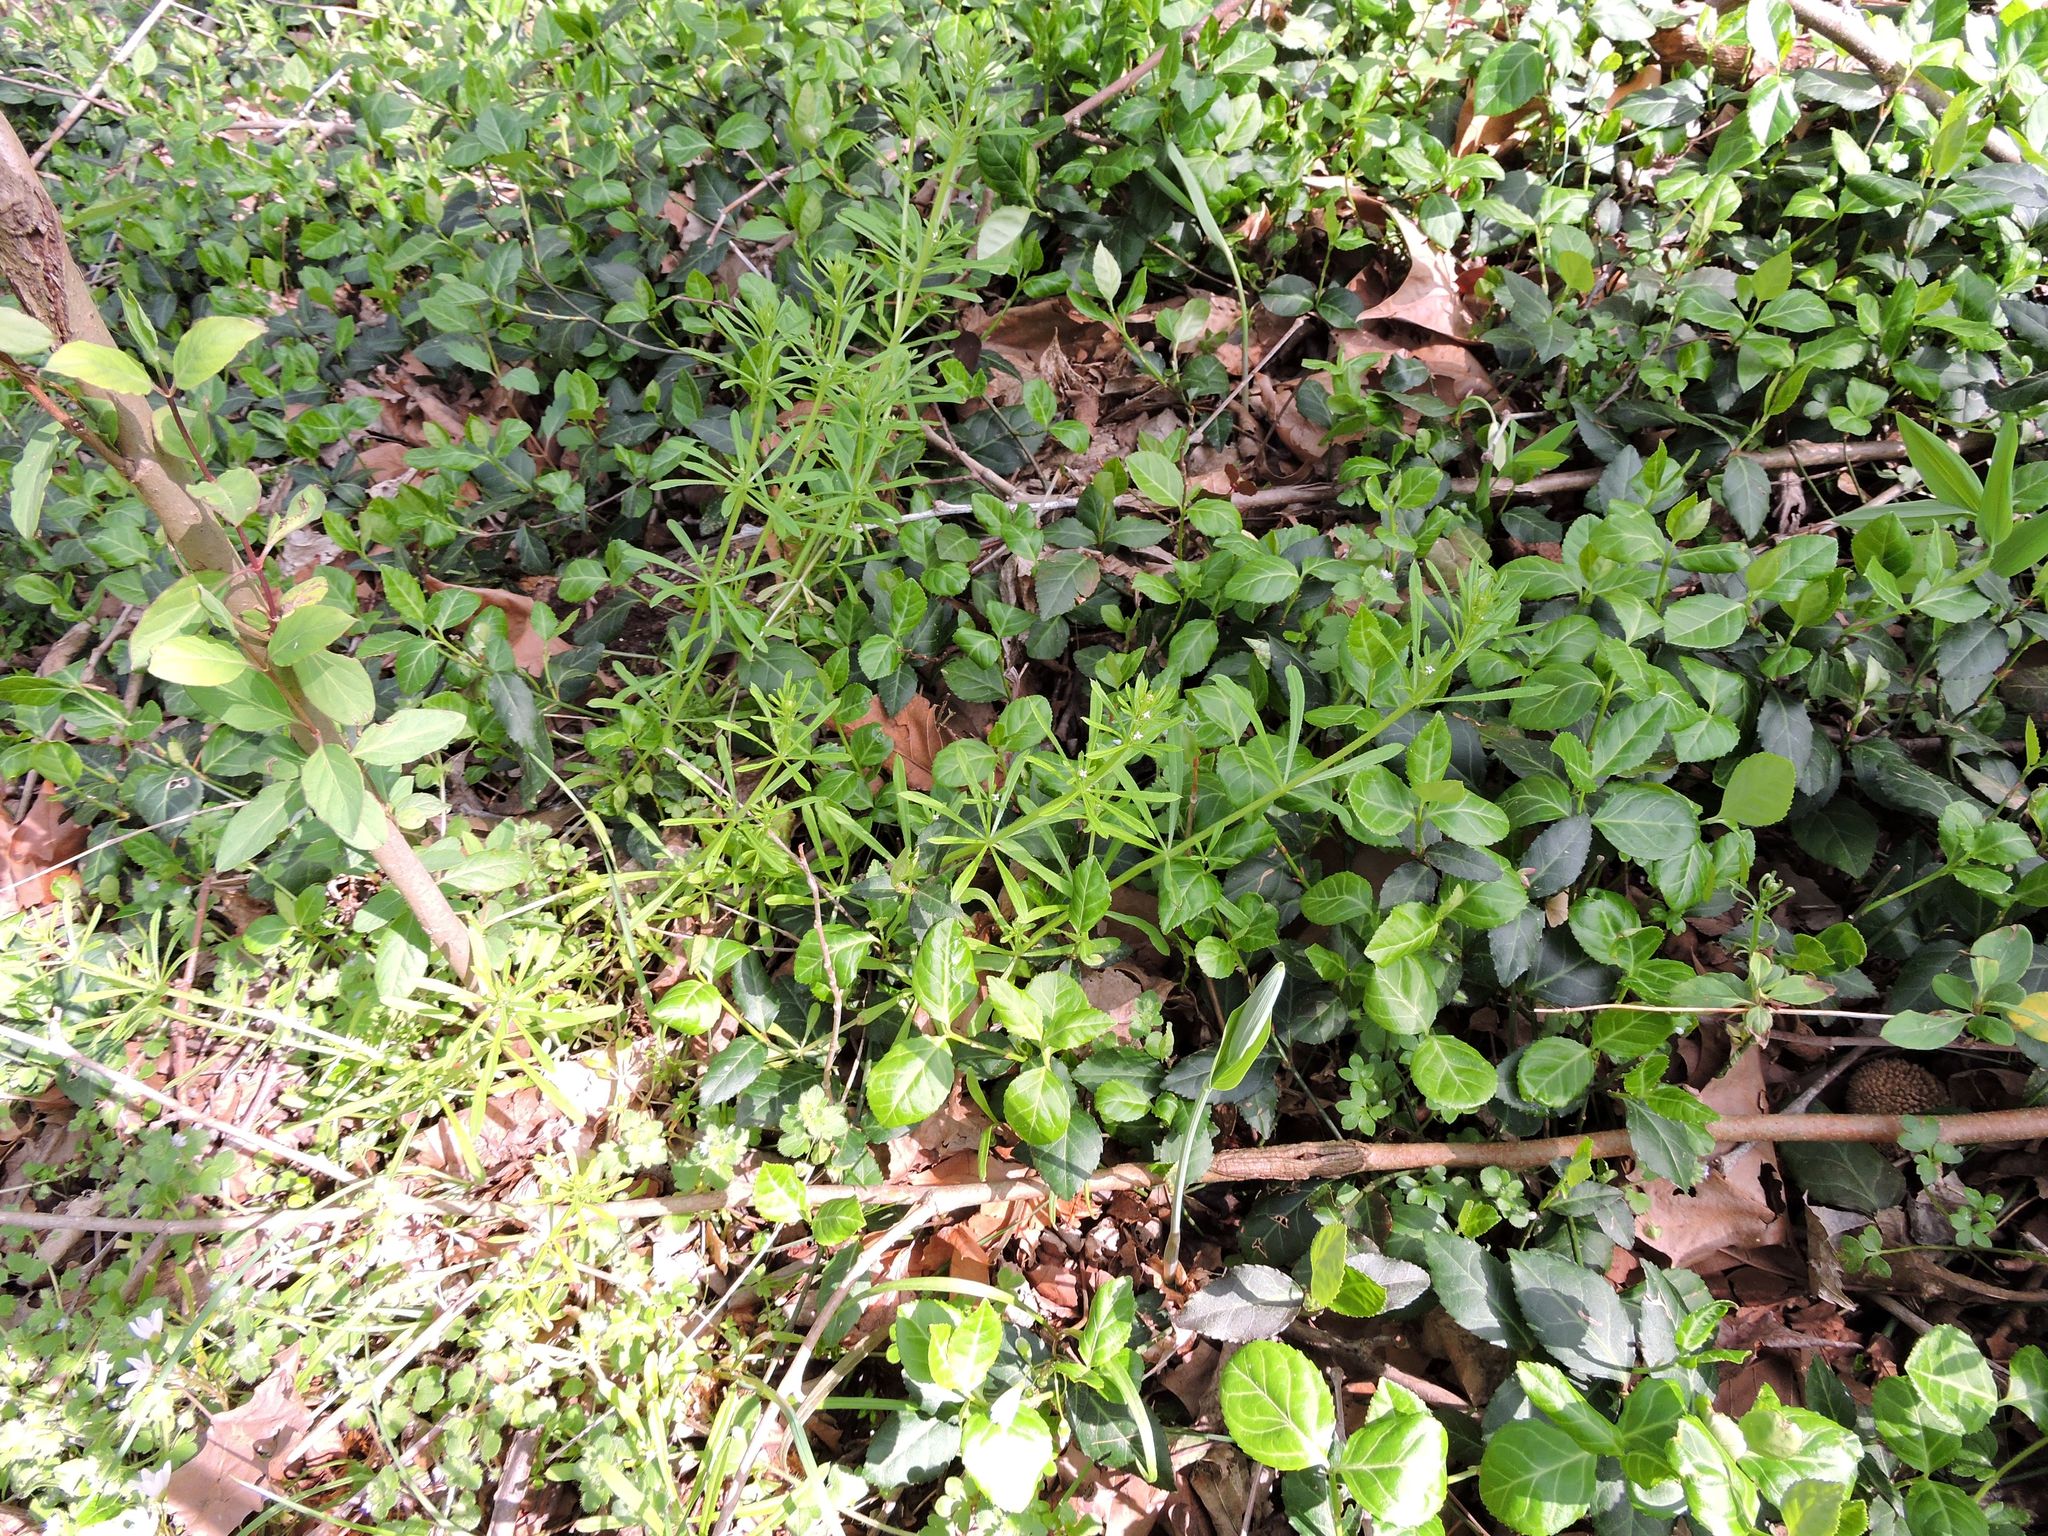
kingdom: Plantae
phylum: Tracheophyta
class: Magnoliopsida
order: Gentianales
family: Rubiaceae
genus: Galium
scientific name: Galium aparine
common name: Cleavers
